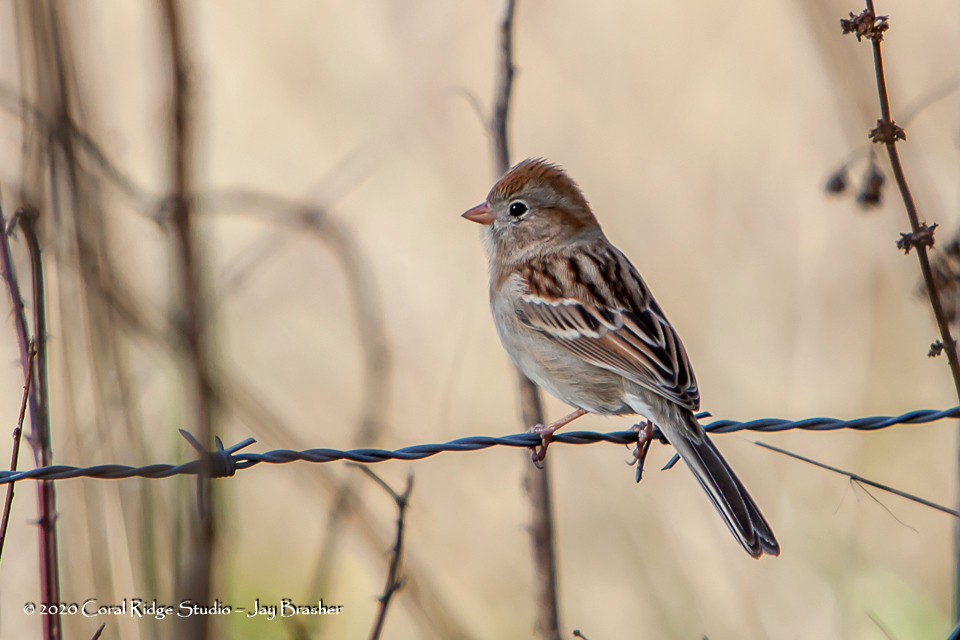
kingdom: Animalia
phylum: Chordata
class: Aves
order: Passeriformes
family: Passerellidae
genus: Spizella
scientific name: Spizella pusilla
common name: Field sparrow
